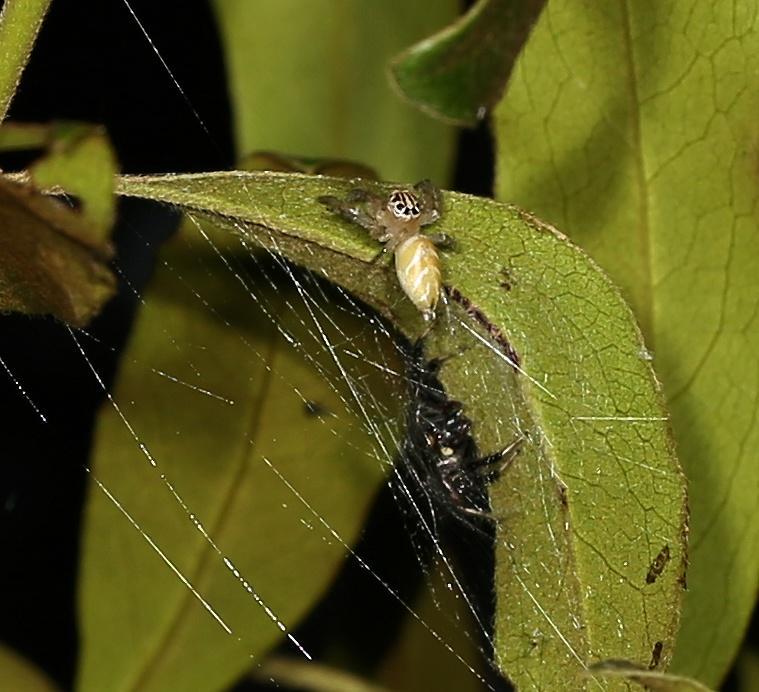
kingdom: Animalia
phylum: Arthropoda
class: Arachnida
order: Araneae
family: Salticidae
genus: Brancus
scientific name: Brancus mustelus
